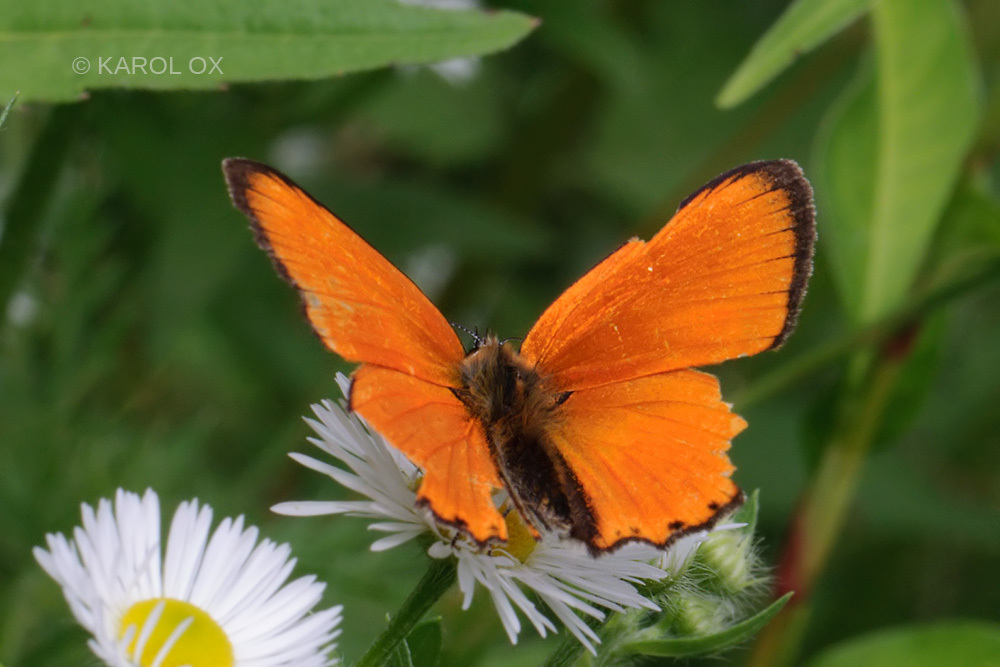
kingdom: Animalia
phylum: Arthropoda
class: Insecta
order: Lepidoptera
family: Lycaenidae
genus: Lycaena
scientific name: Lycaena virgaureae
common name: Scarce copper
